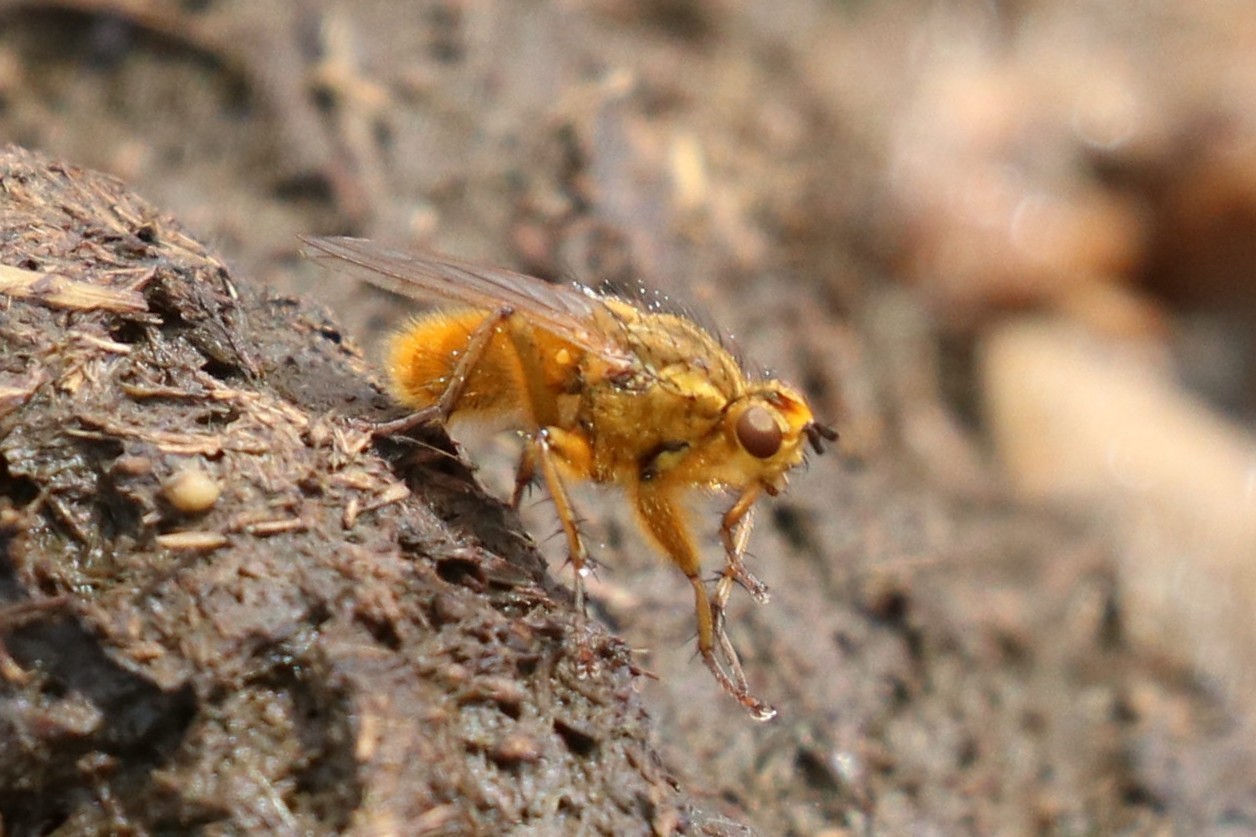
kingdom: Animalia
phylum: Arthropoda
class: Insecta
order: Diptera
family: Scathophagidae
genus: Scathophaga
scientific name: Scathophaga stercoraria
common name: Yellow dung fly
